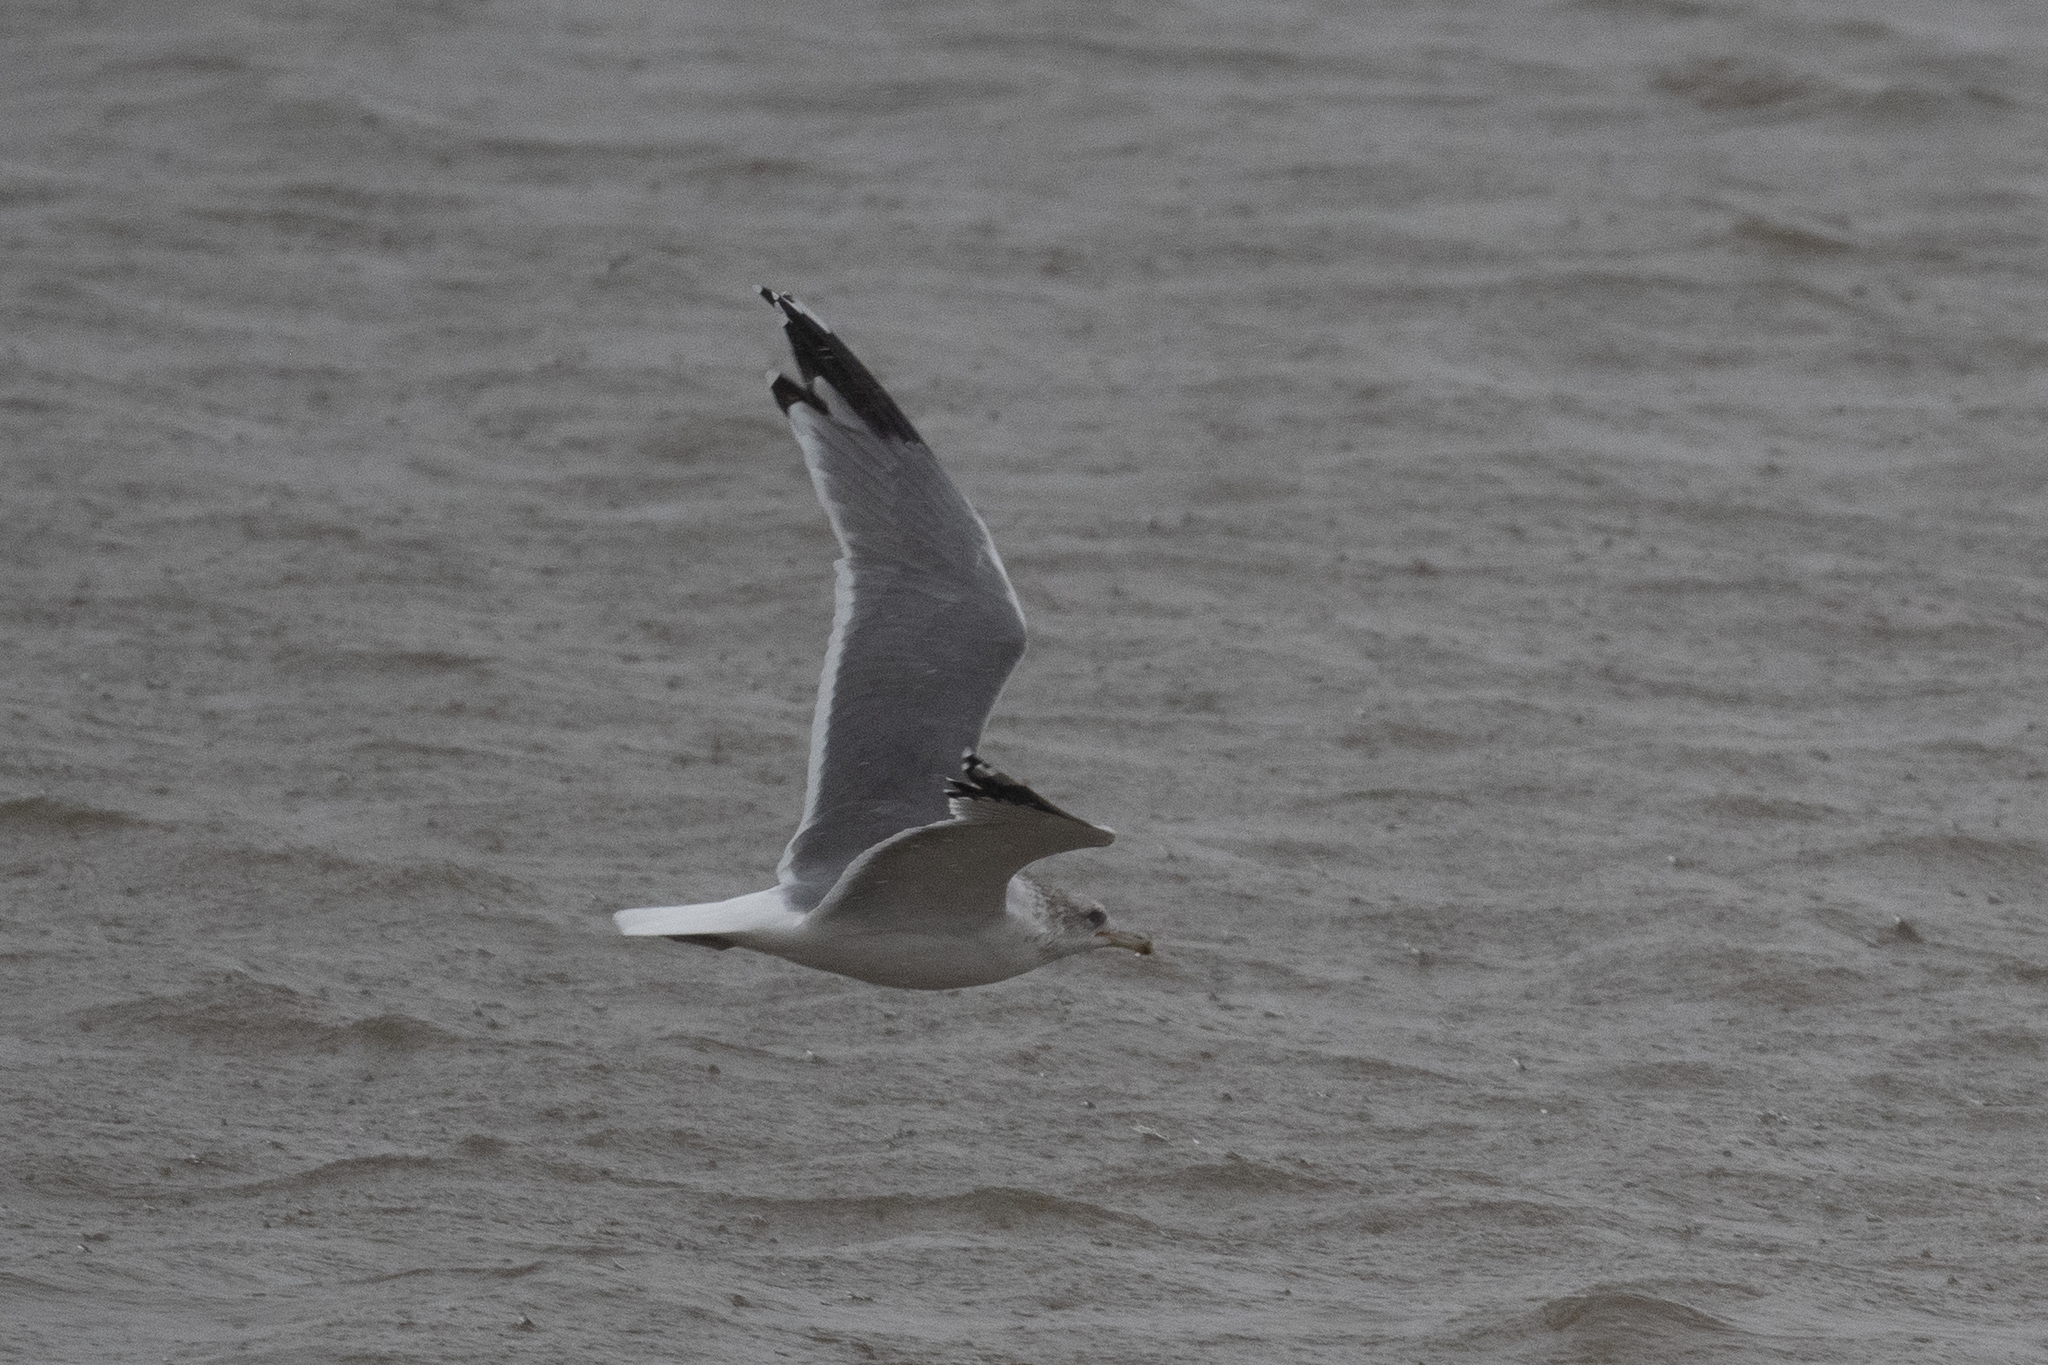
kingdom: Animalia
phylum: Chordata
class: Aves
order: Charadriiformes
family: Laridae
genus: Larus
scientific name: Larus californicus
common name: California gull
